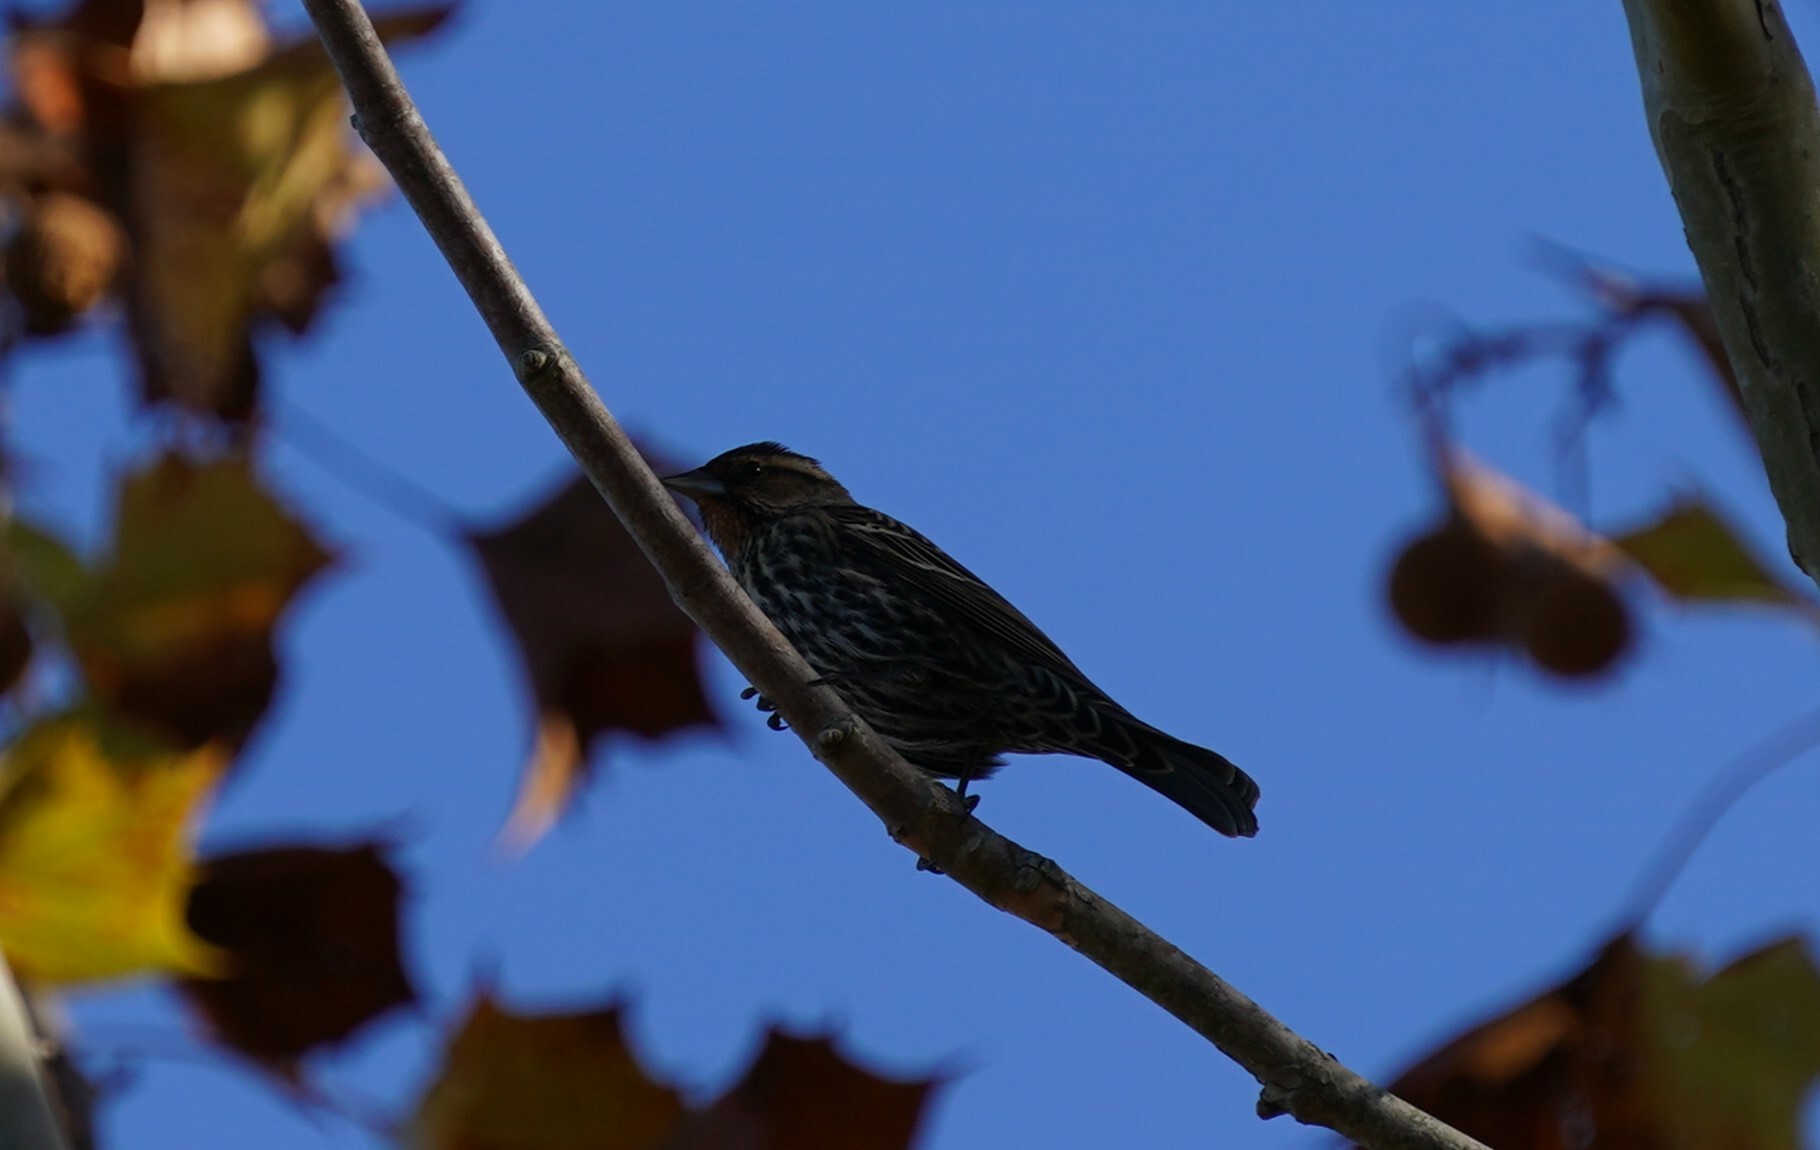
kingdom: Animalia
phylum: Chordata
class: Aves
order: Passeriformes
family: Icteridae
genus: Agelaius
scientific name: Agelaius phoeniceus
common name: Red-winged blackbird
